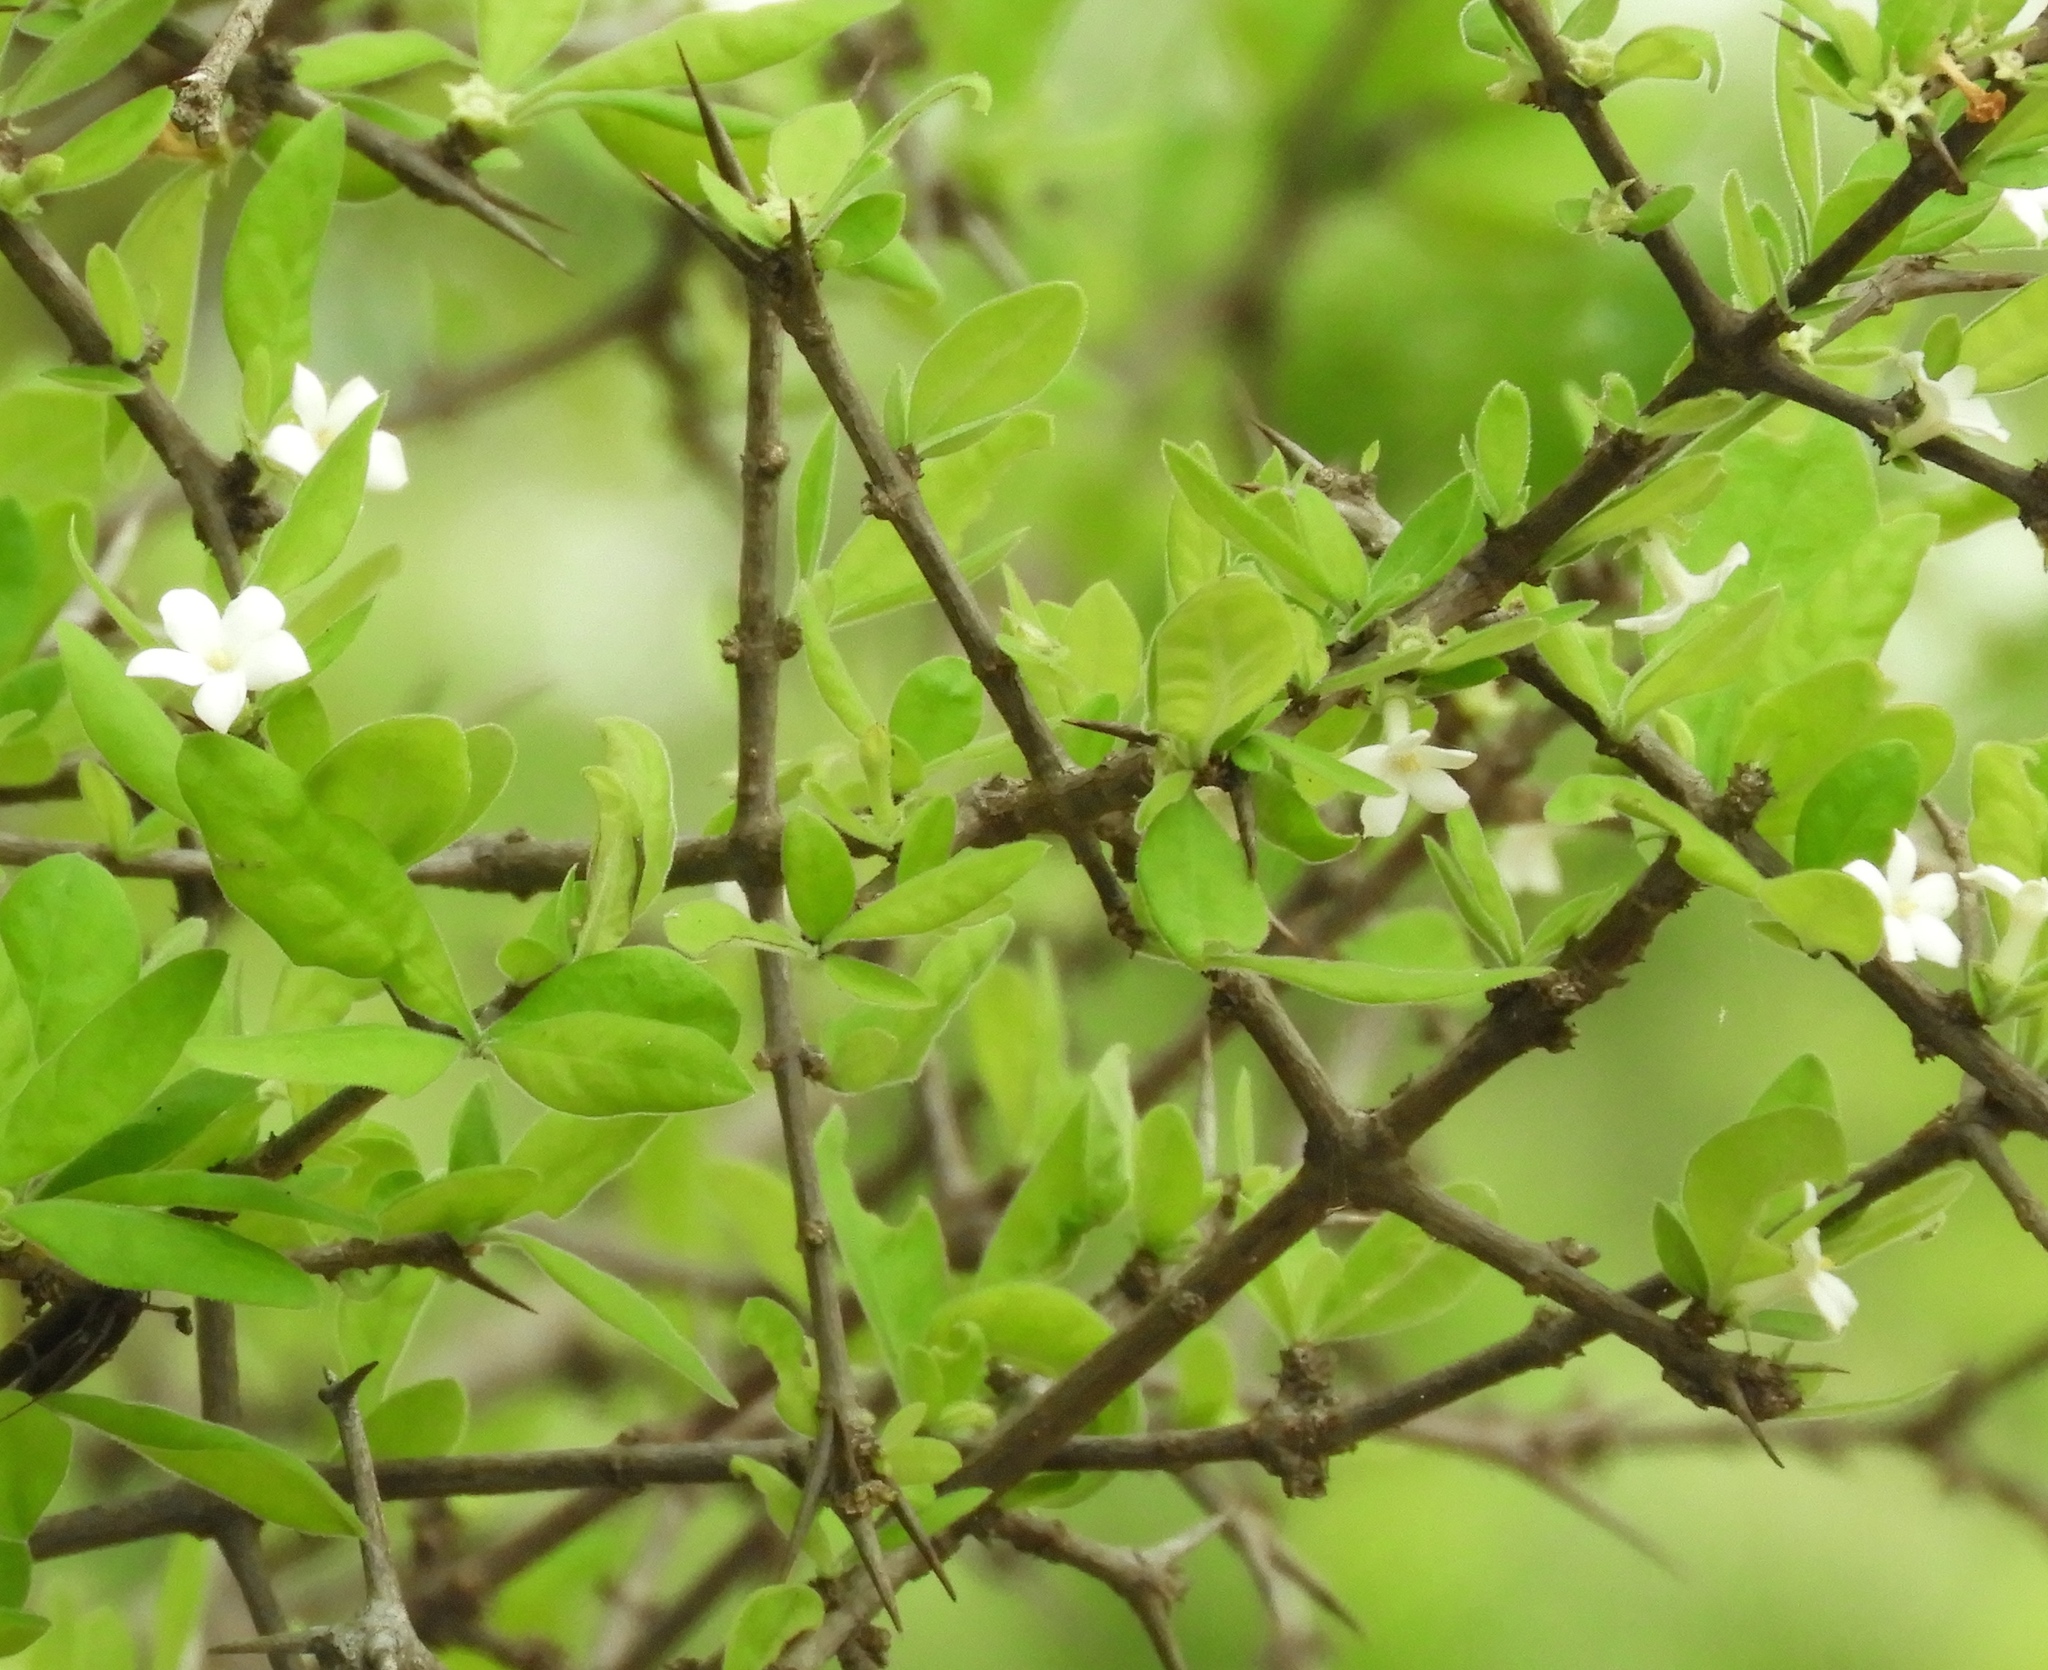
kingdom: Plantae
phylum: Tracheophyta
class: Magnoliopsida
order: Gentianales
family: Rubiaceae
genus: Randia
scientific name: Randia aculeata
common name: Inkberry
